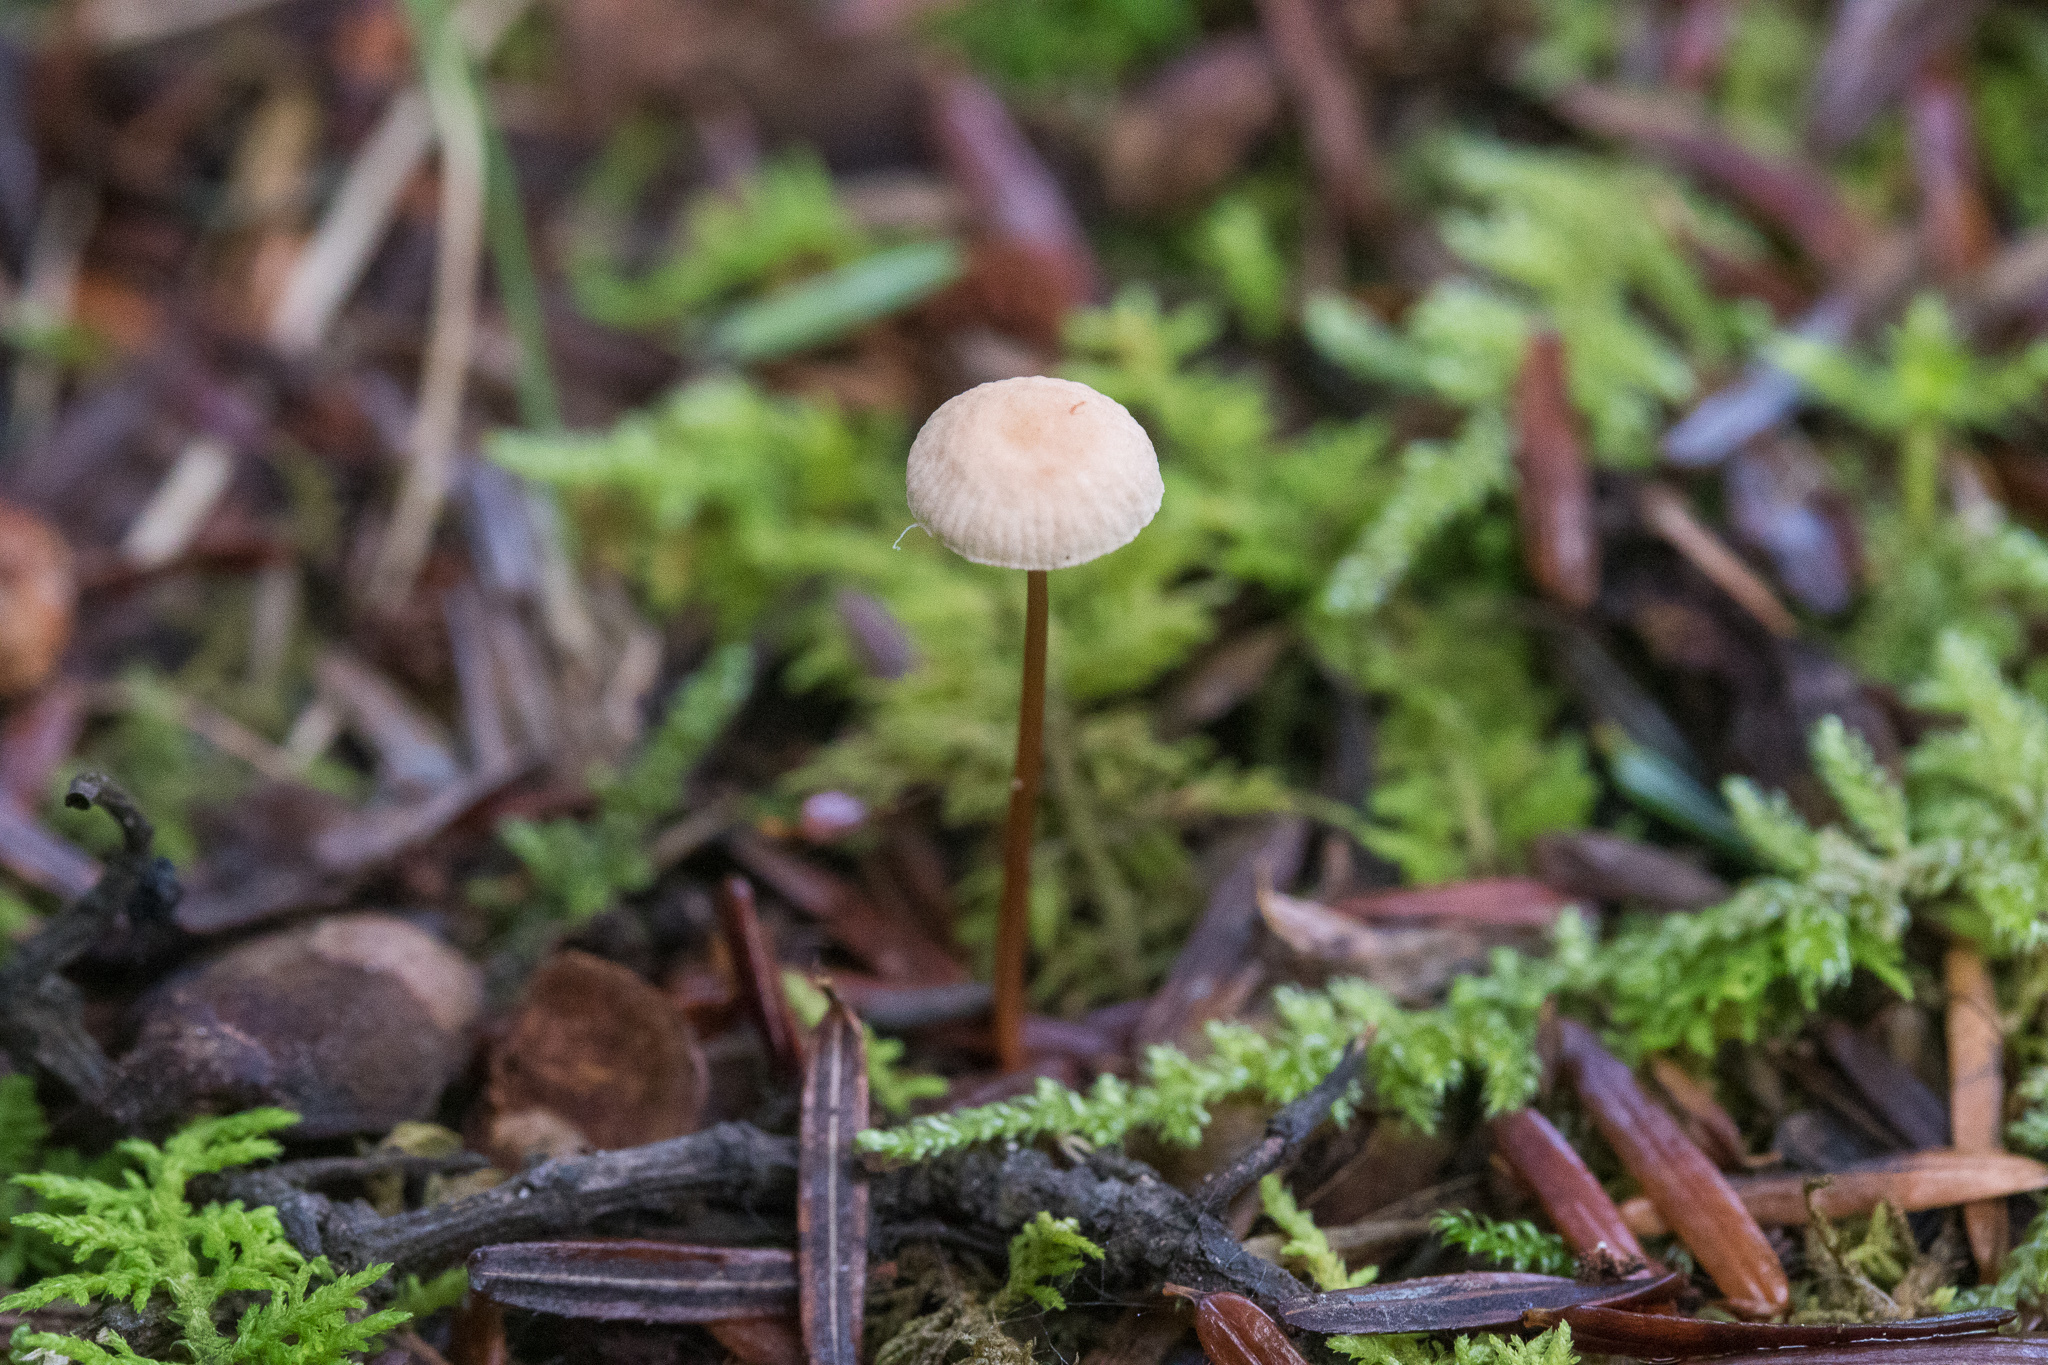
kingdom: Fungi
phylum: Basidiomycota
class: Agaricomycetes
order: Agaricales
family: Omphalotaceae
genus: Mycetinis
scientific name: Mycetinis scorodonius
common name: Vampires bane
